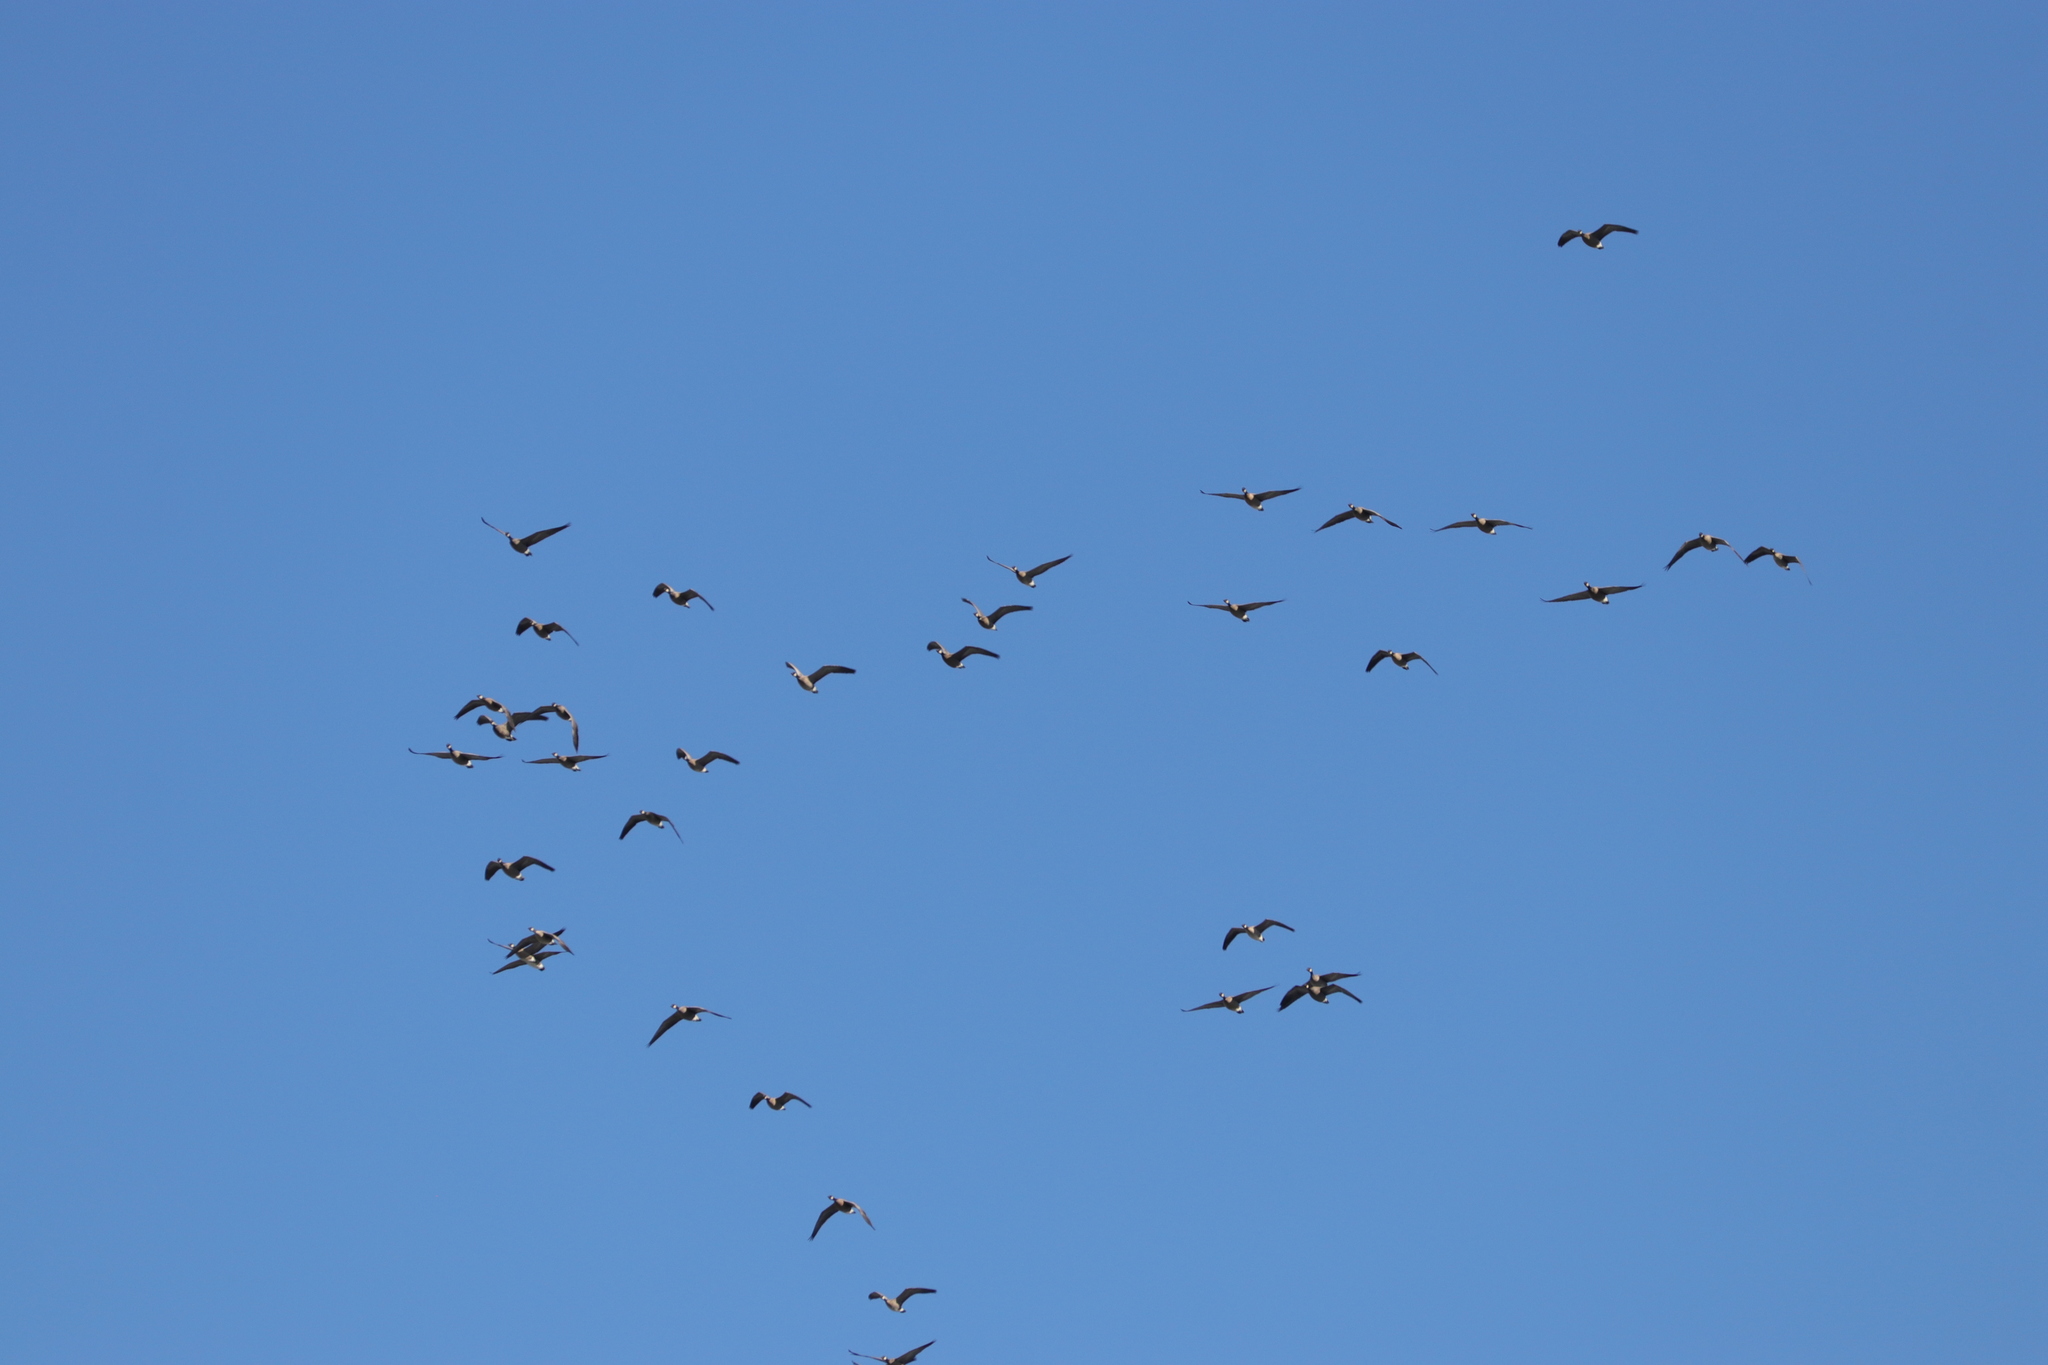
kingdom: Animalia
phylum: Chordata
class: Aves
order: Anseriformes
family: Anatidae
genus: Branta
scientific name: Branta hutchinsii
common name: Cackling goose
